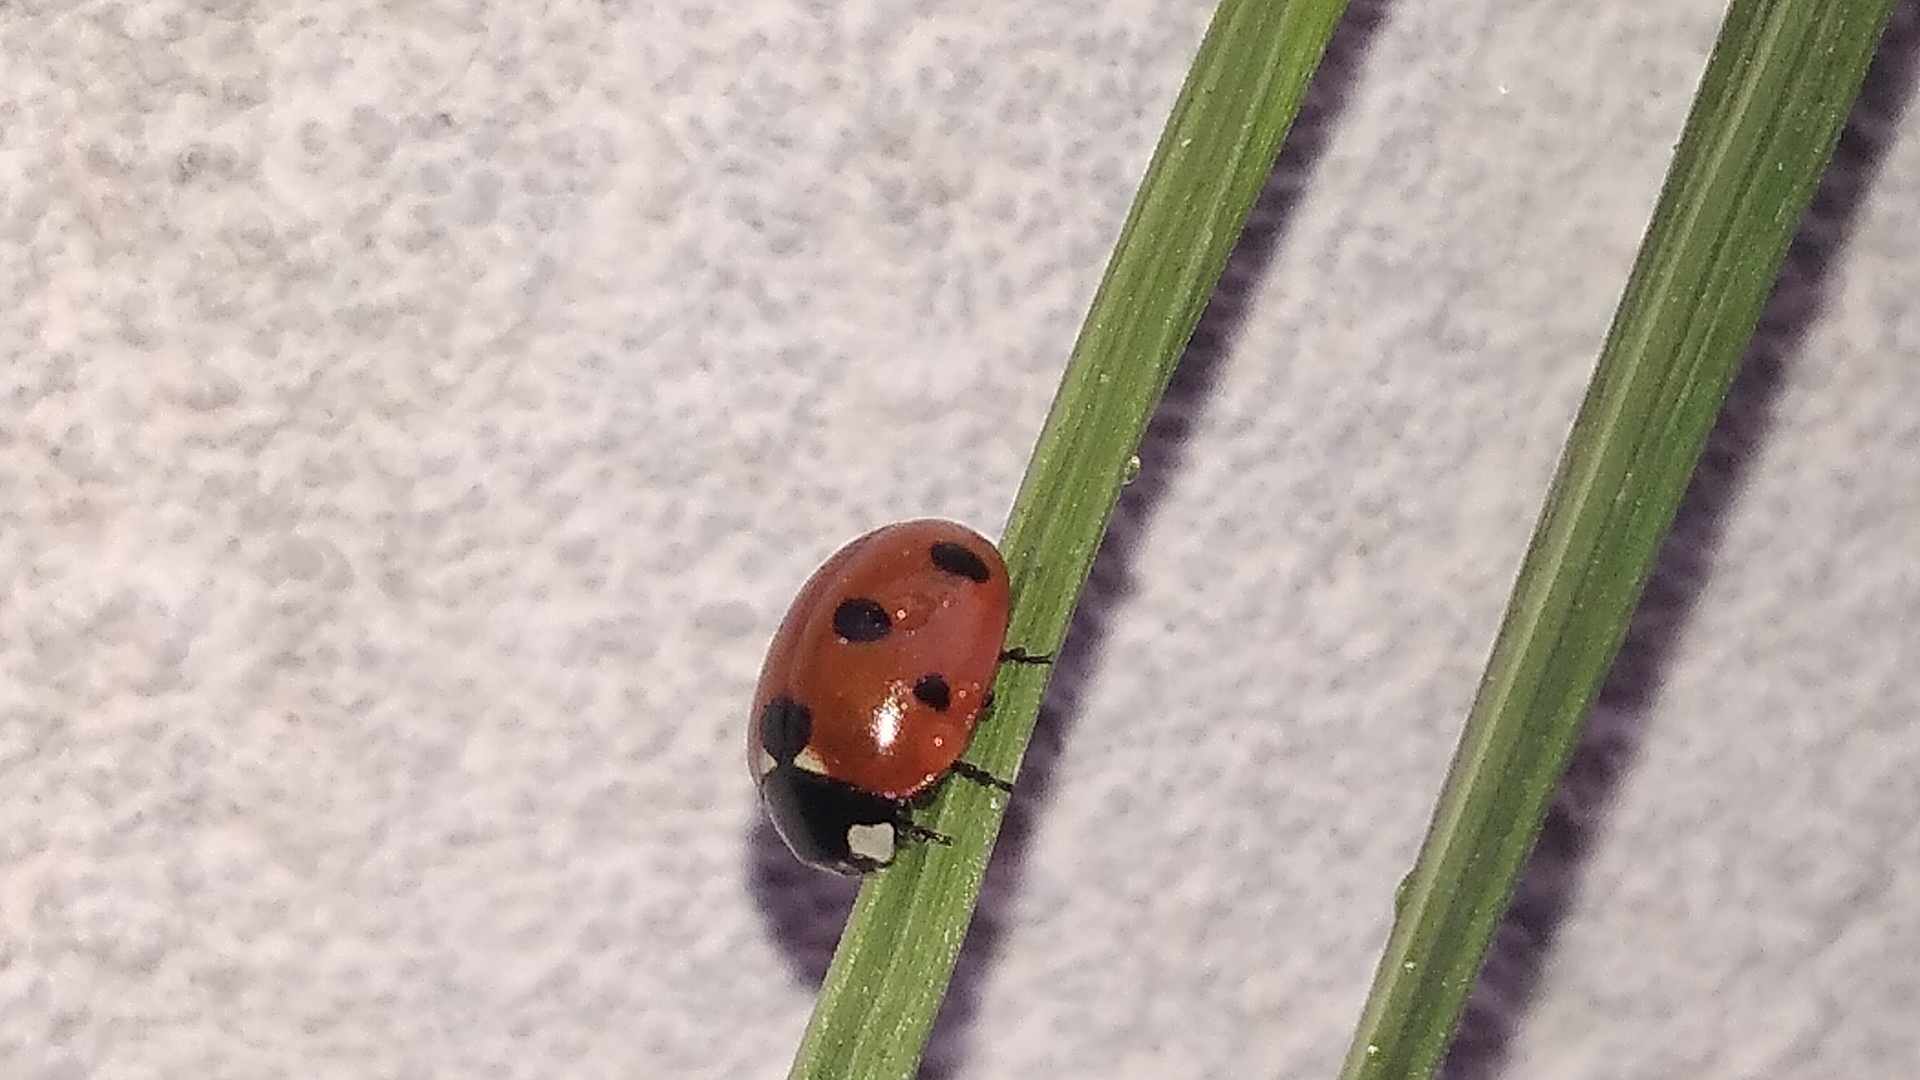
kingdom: Animalia
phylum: Arthropoda
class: Insecta
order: Coleoptera
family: Coccinellidae
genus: Coccinella
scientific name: Coccinella septempunctata
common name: Sevenspotted lady beetle
